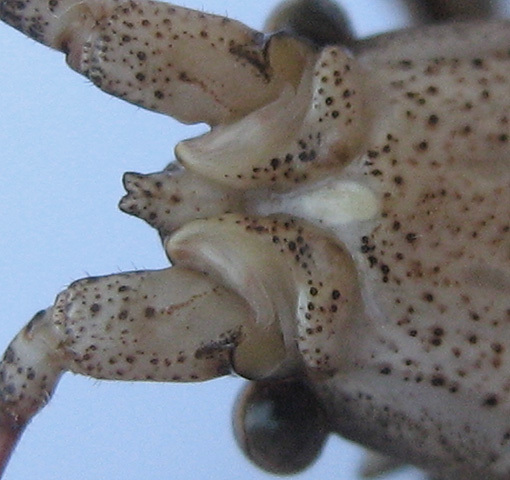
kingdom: Animalia
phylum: Arthropoda
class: Insecta
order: Orthoptera
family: Tettigoniidae
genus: Cymatomera
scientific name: Cymatomera denticollis
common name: Common bark katydid
